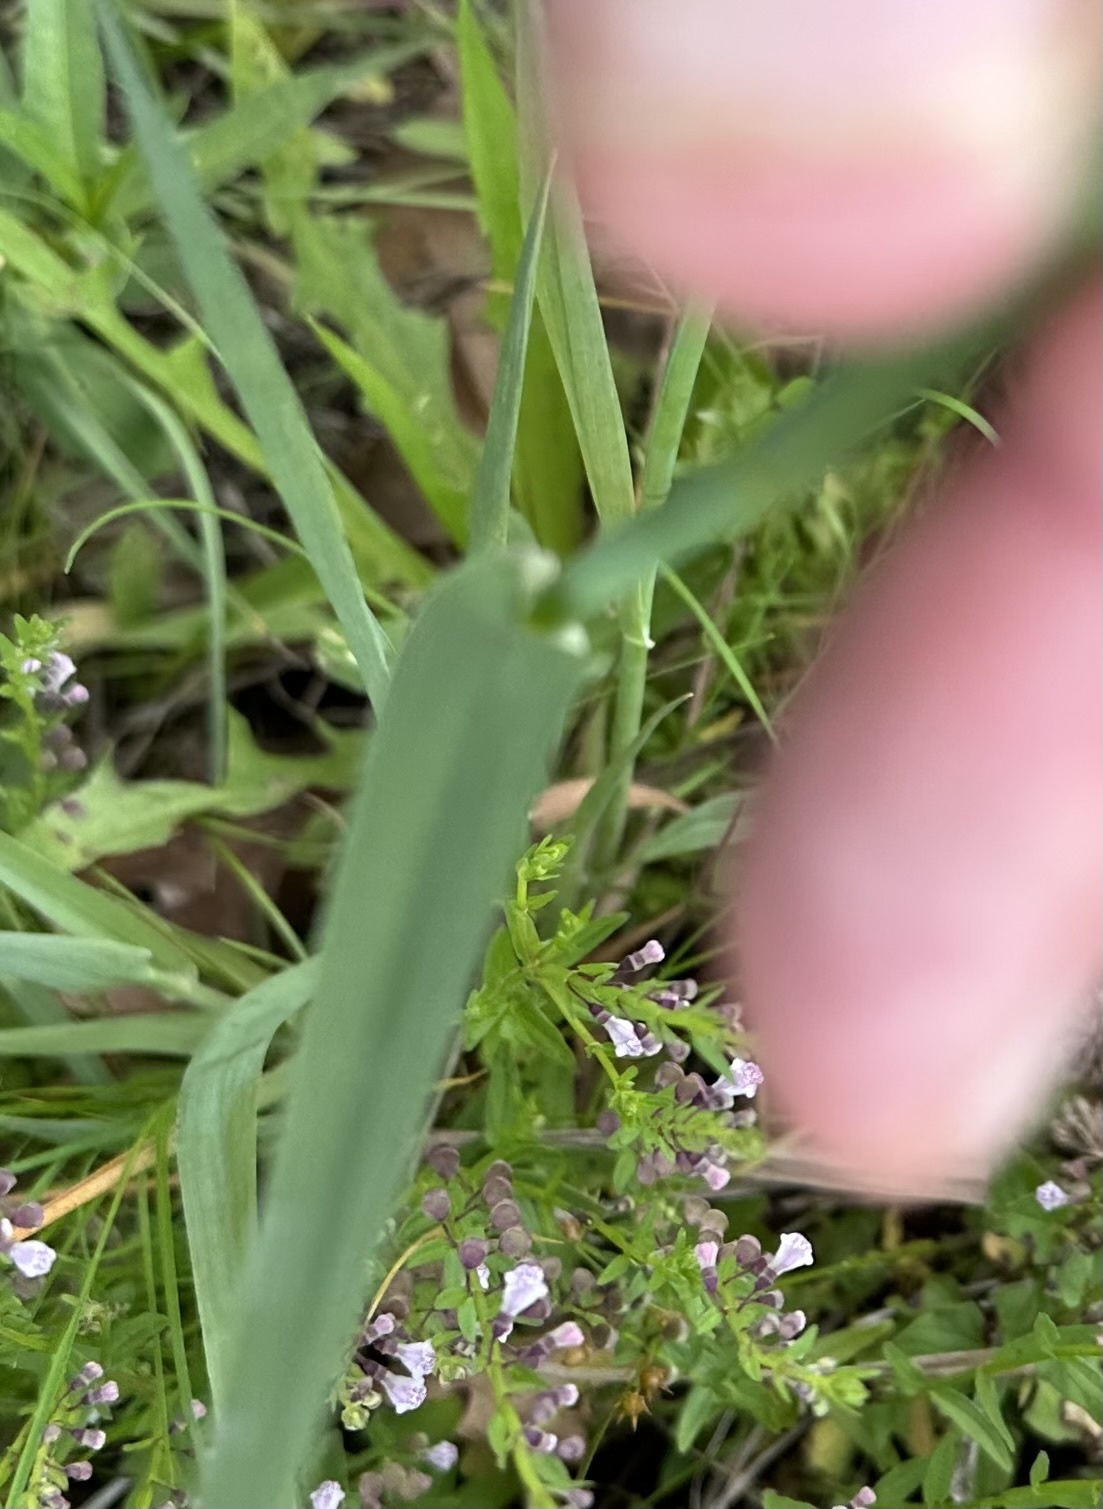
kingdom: Plantae
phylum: Tracheophyta
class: Liliopsida
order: Poales
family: Poaceae
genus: Phalaris
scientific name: Phalaris angusta
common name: Narrow canary grass
